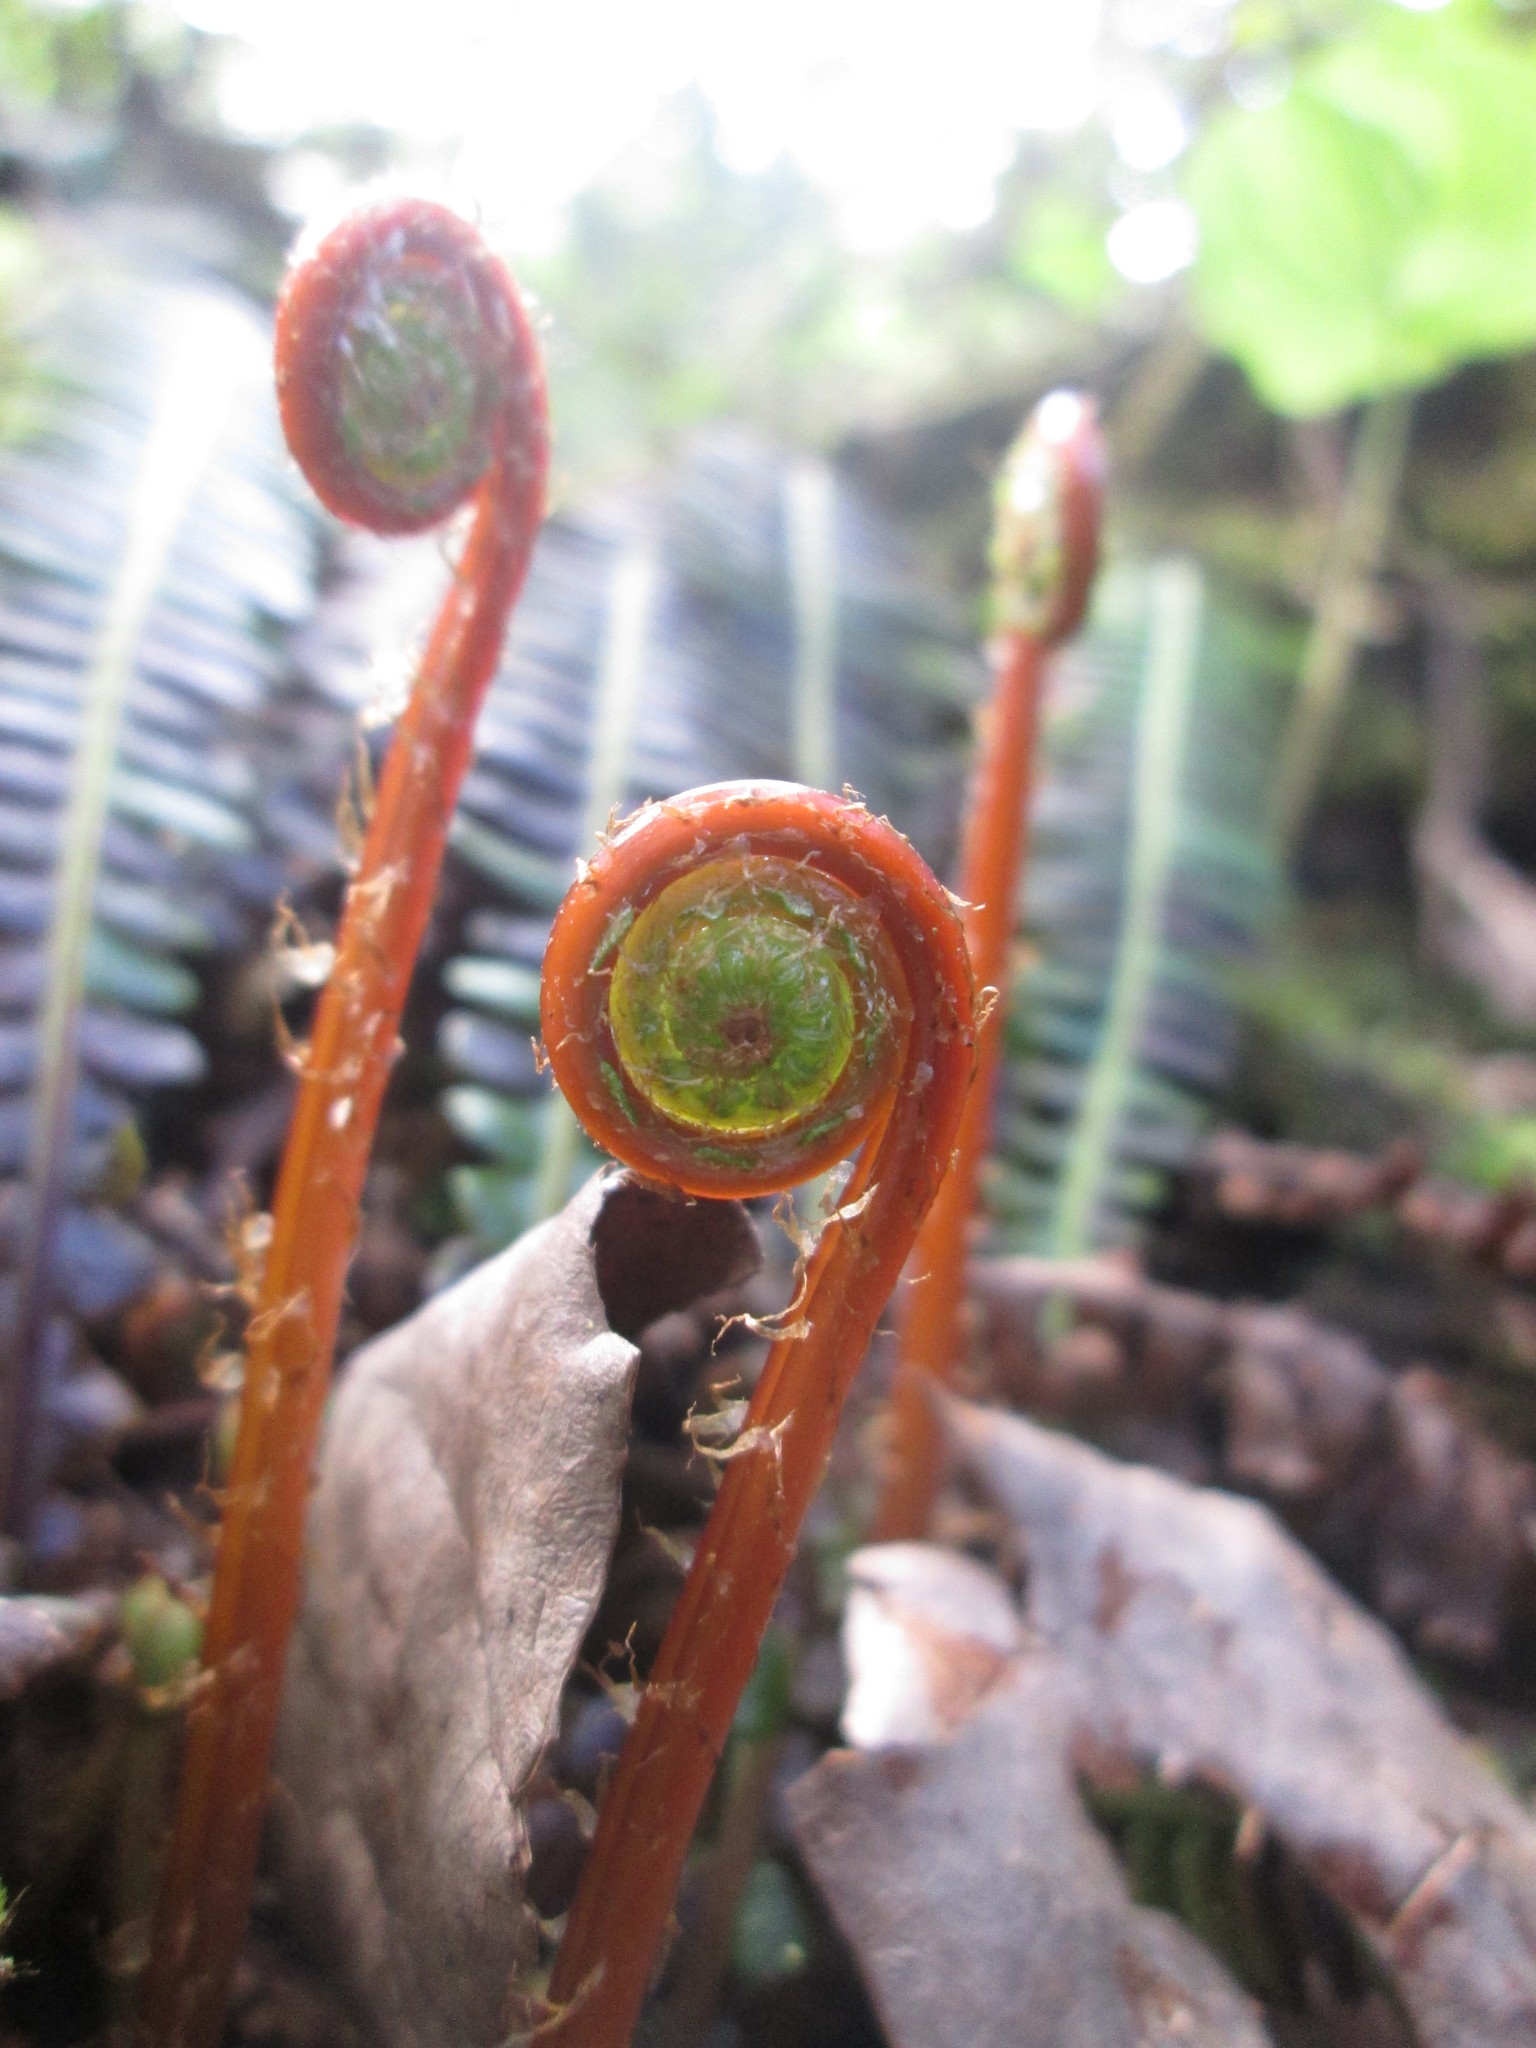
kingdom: Plantae
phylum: Tracheophyta
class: Polypodiopsida
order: Polypodiales
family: Blechnaceae
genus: Struthiopteris
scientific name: Struthiopteris spicant
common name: Deer fern
